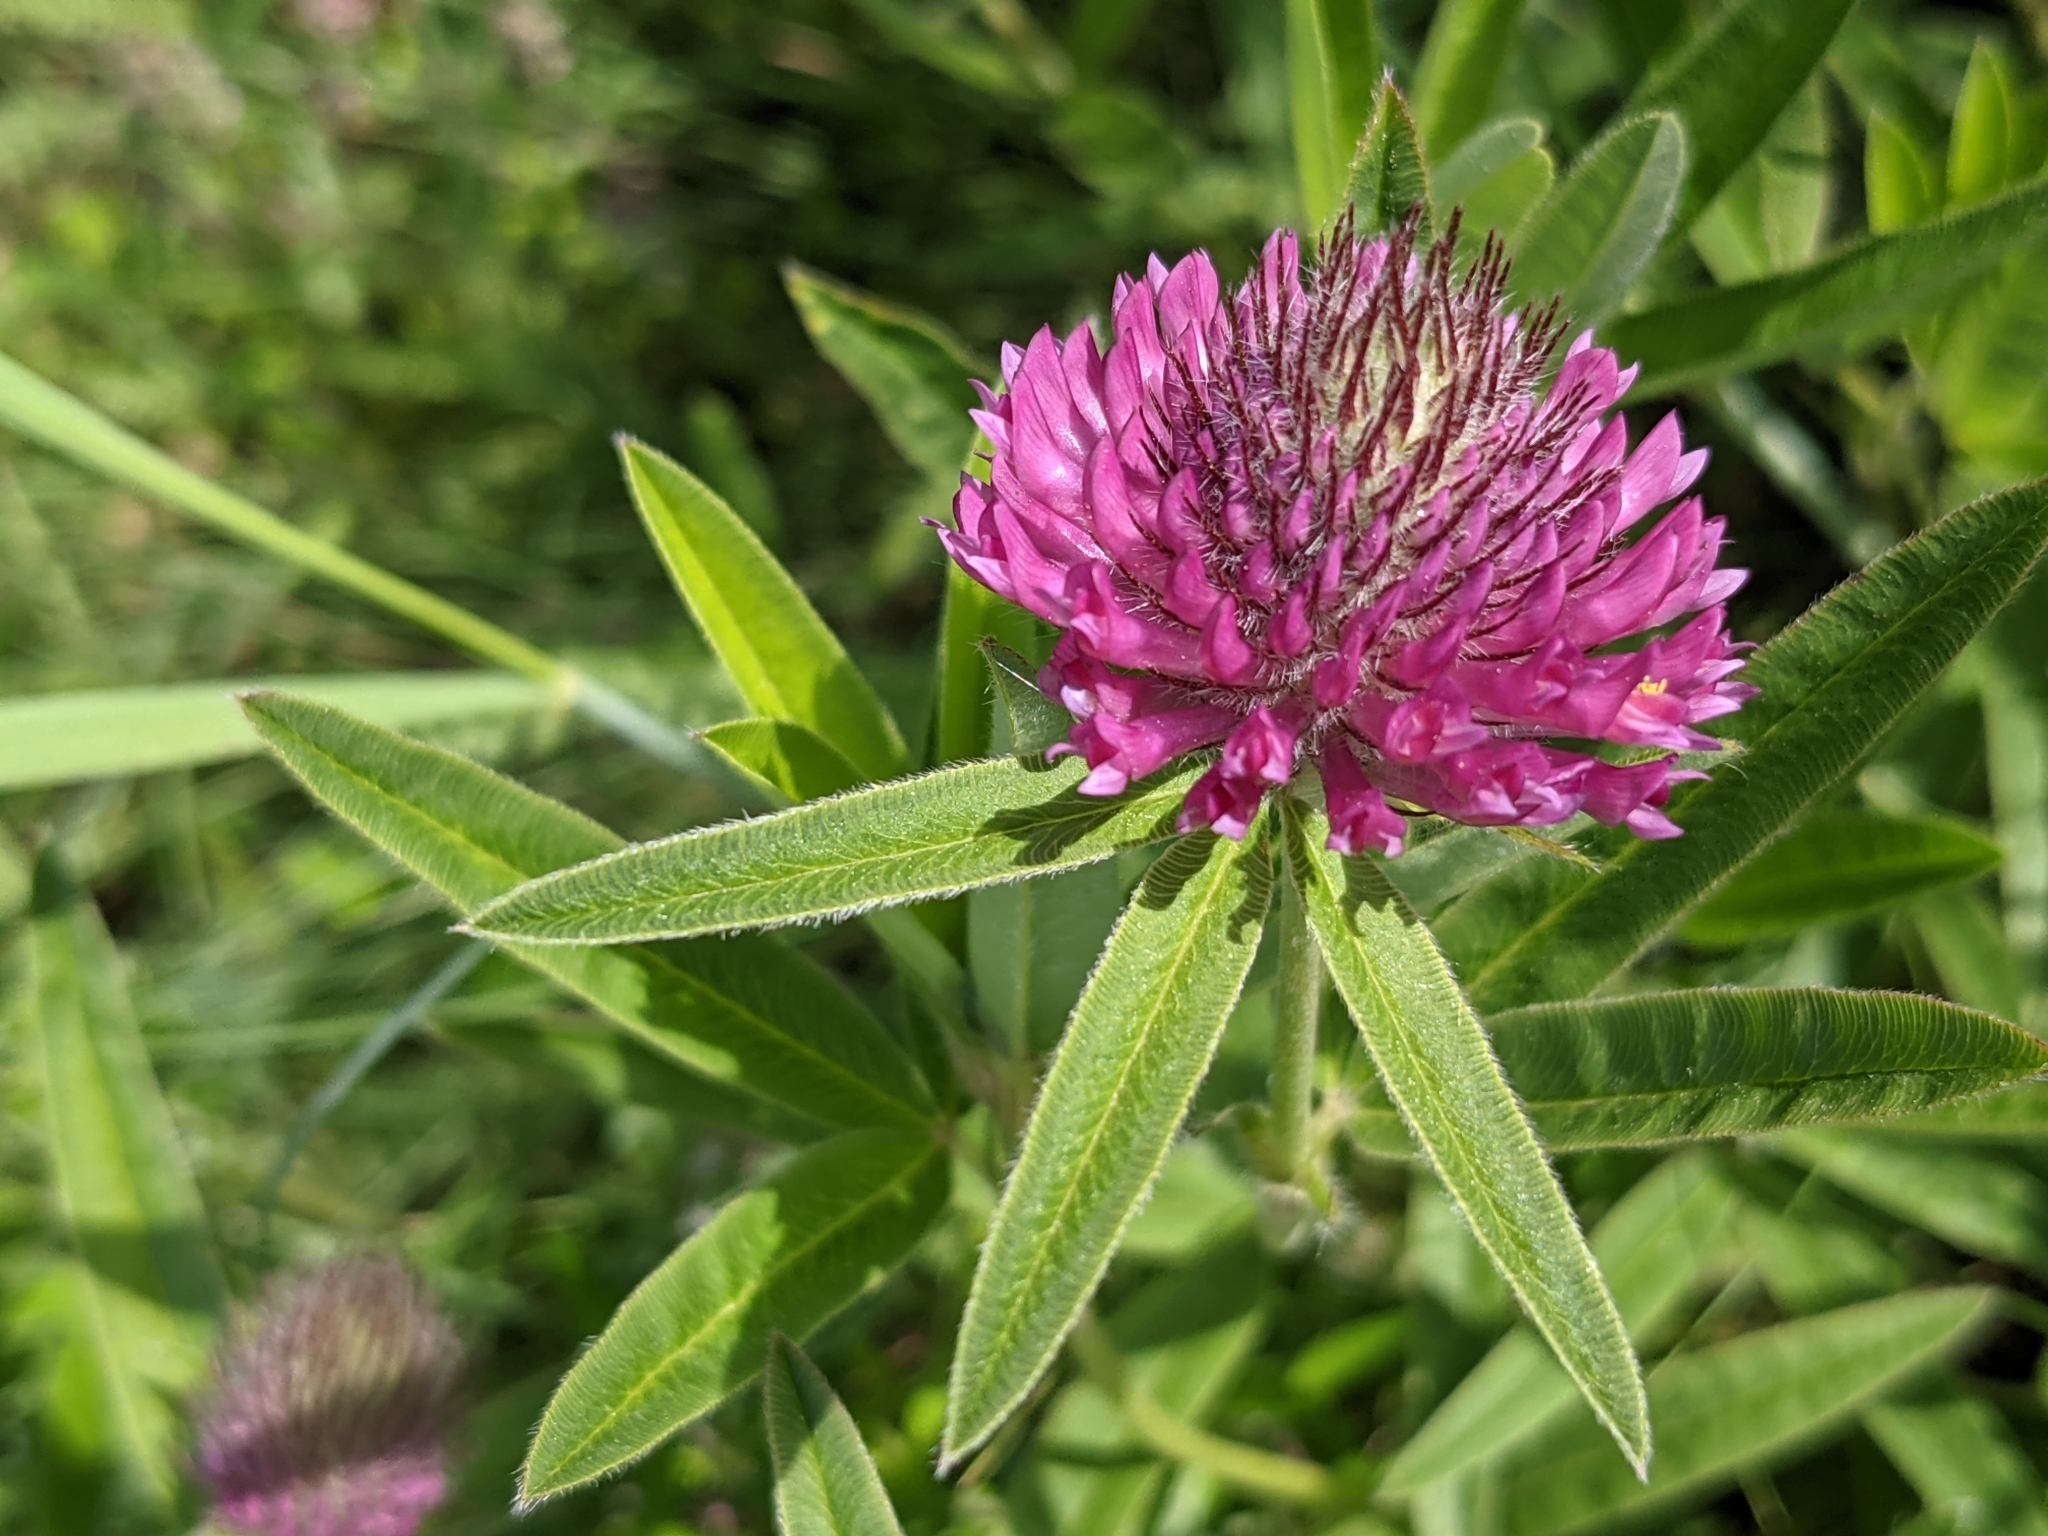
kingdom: Plantae
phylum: Tracheophyta
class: Magnoliopsida
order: Fabales
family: Fabaceae
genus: Trifolium
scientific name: Trifolium alpestre
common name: Owl-head clover
